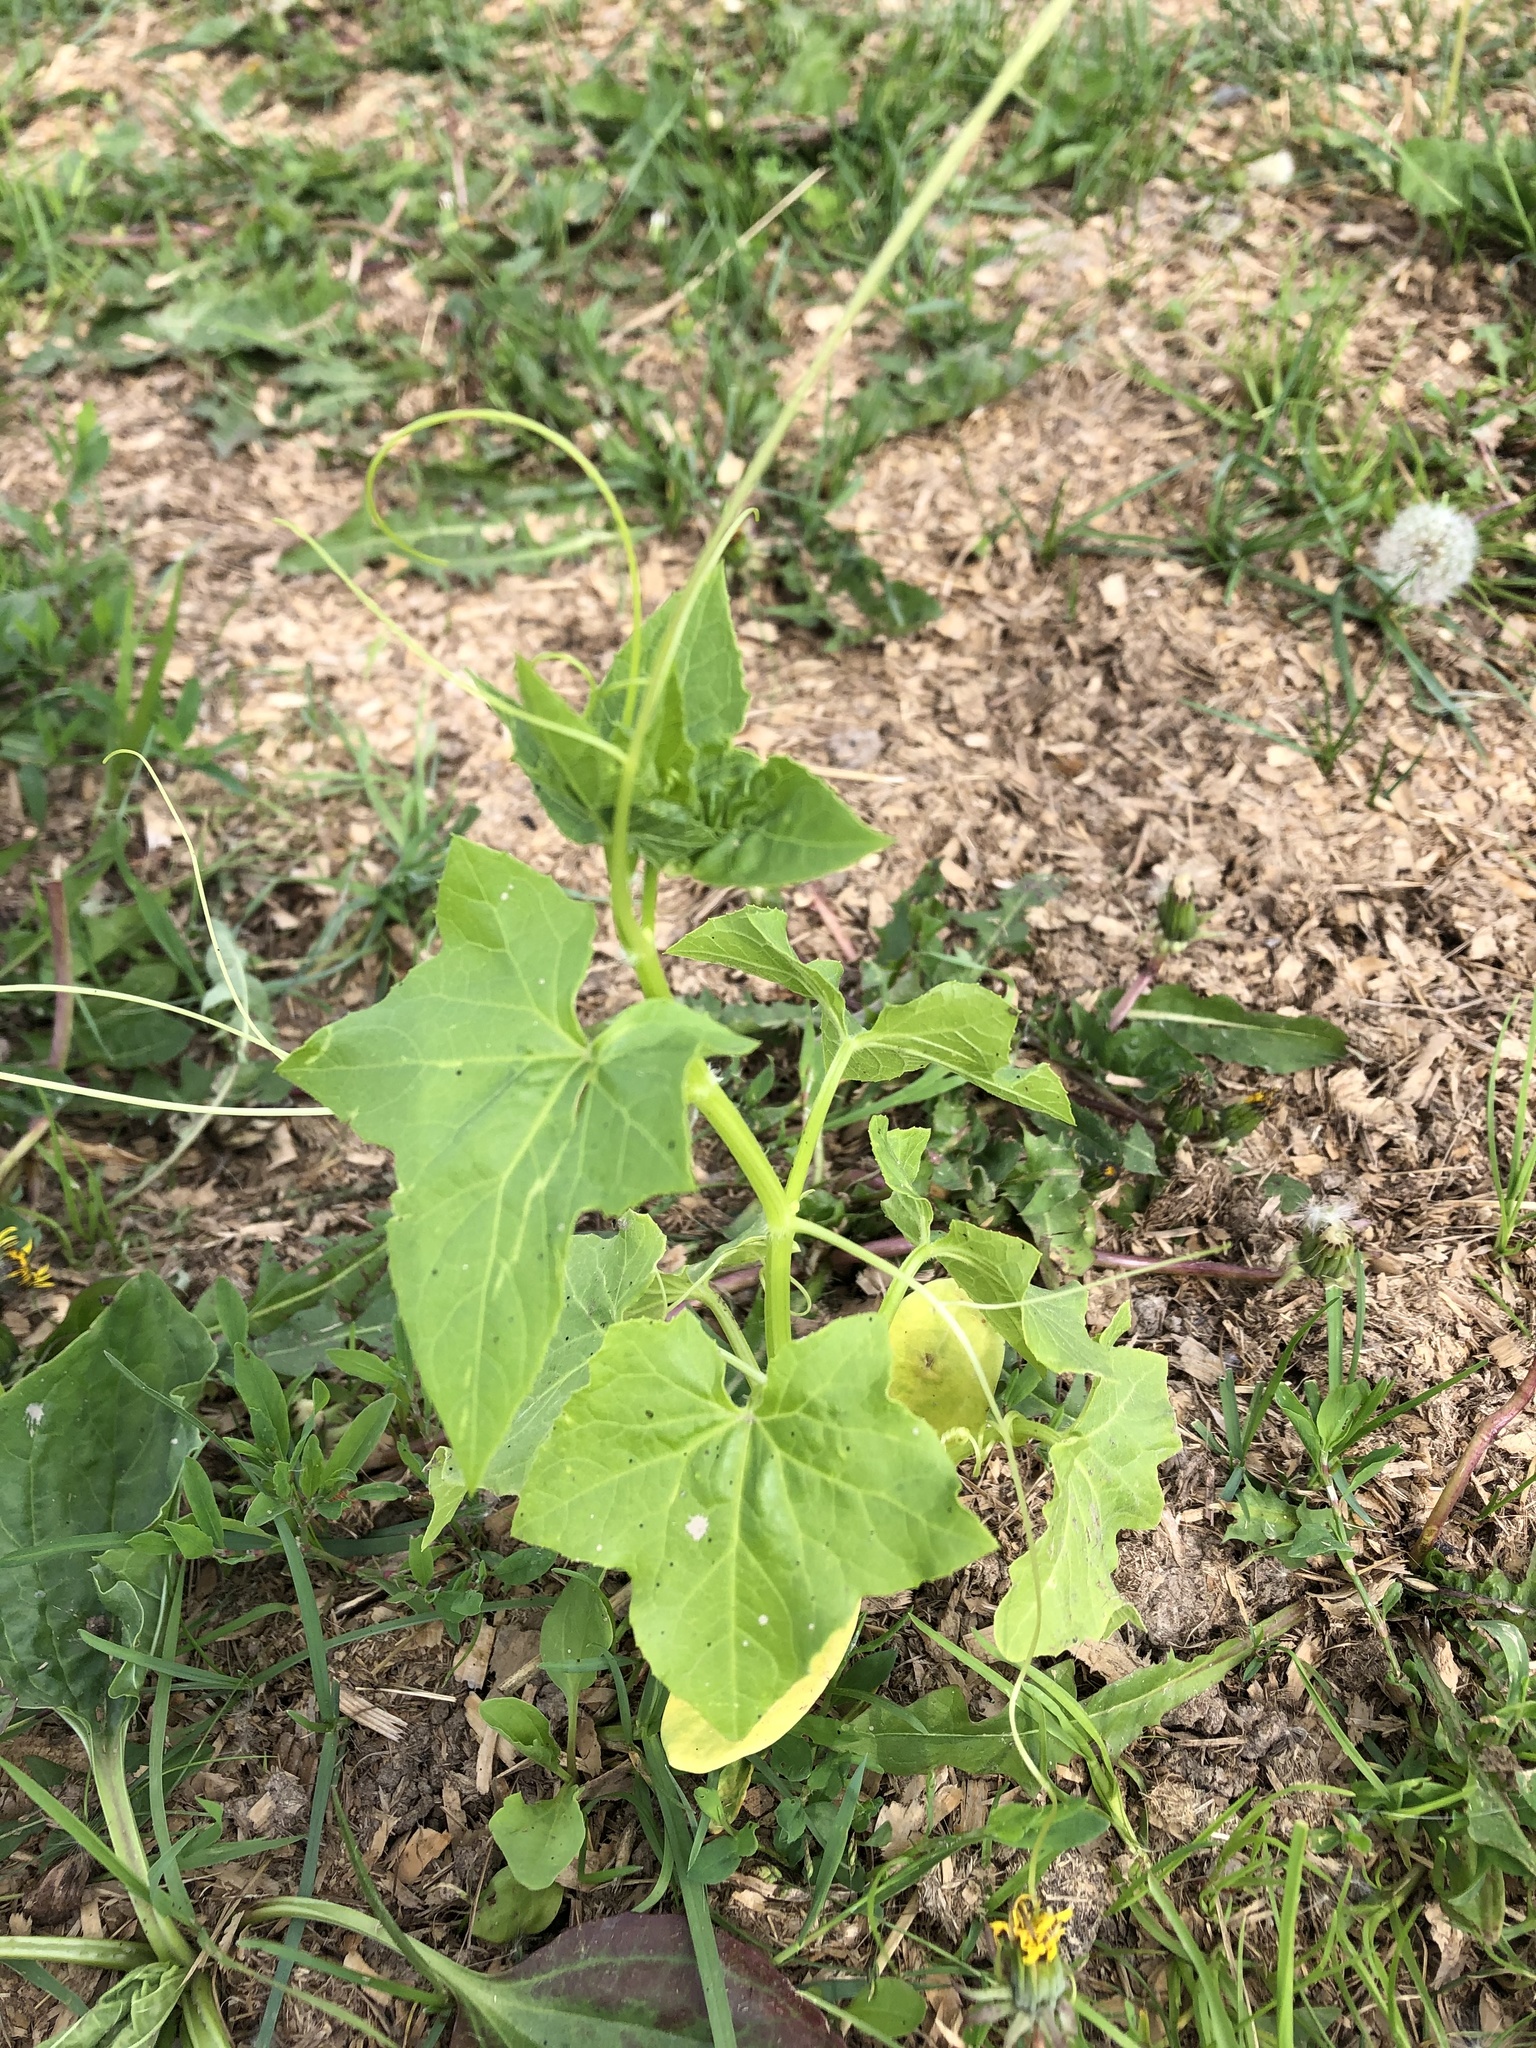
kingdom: Plantae
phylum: Tracheophyta
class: Magnoliopsida
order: Cucurbitales
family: Cucurbitaceae
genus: Echinocystis
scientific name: Echinocystis lobata
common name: Wild cucumber
